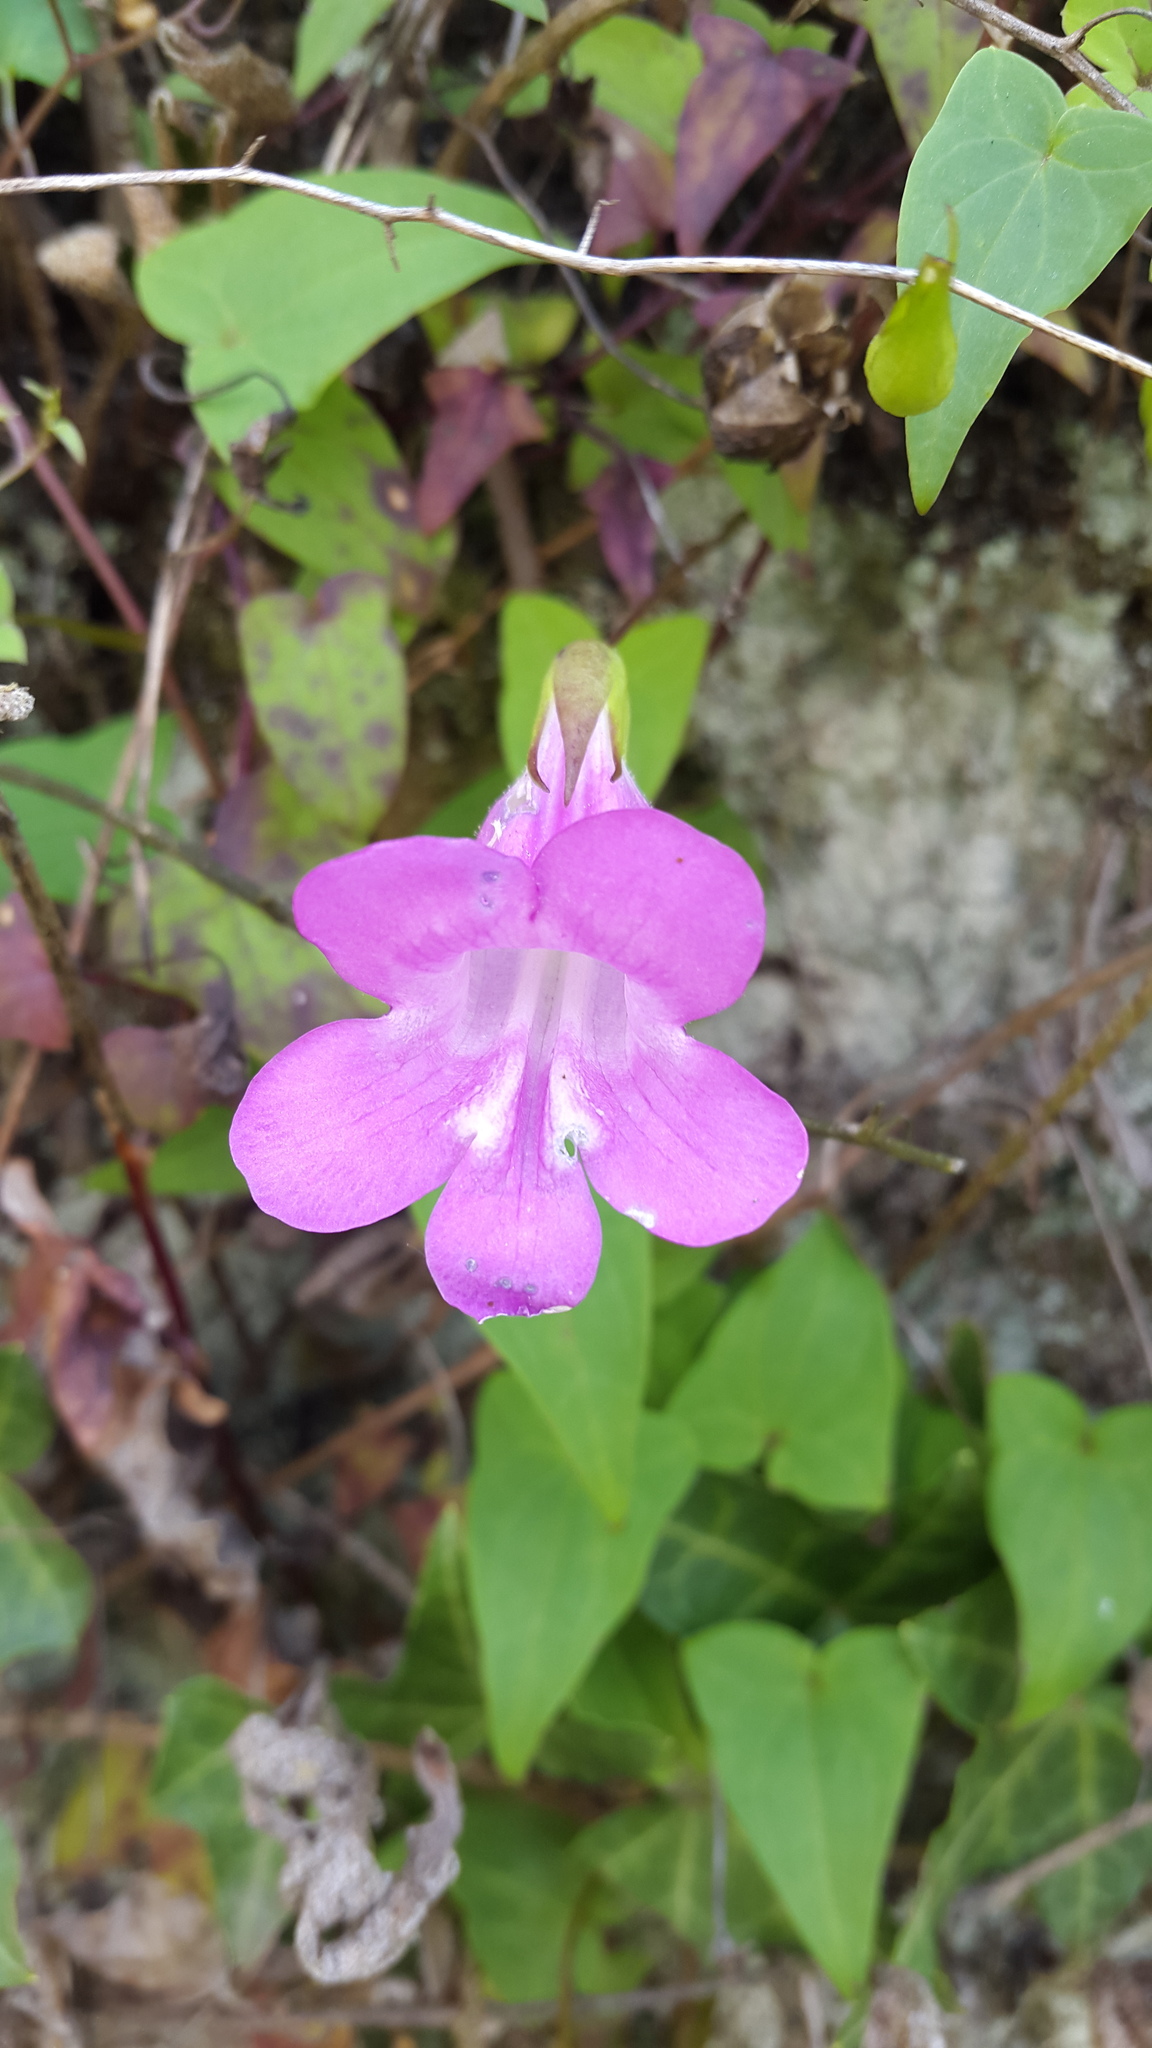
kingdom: Plantae
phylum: Tracheophyta
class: Magnoliopsida
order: Lamiales
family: Plantaginaceae
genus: Maurandya
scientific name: Maurandya scandens
